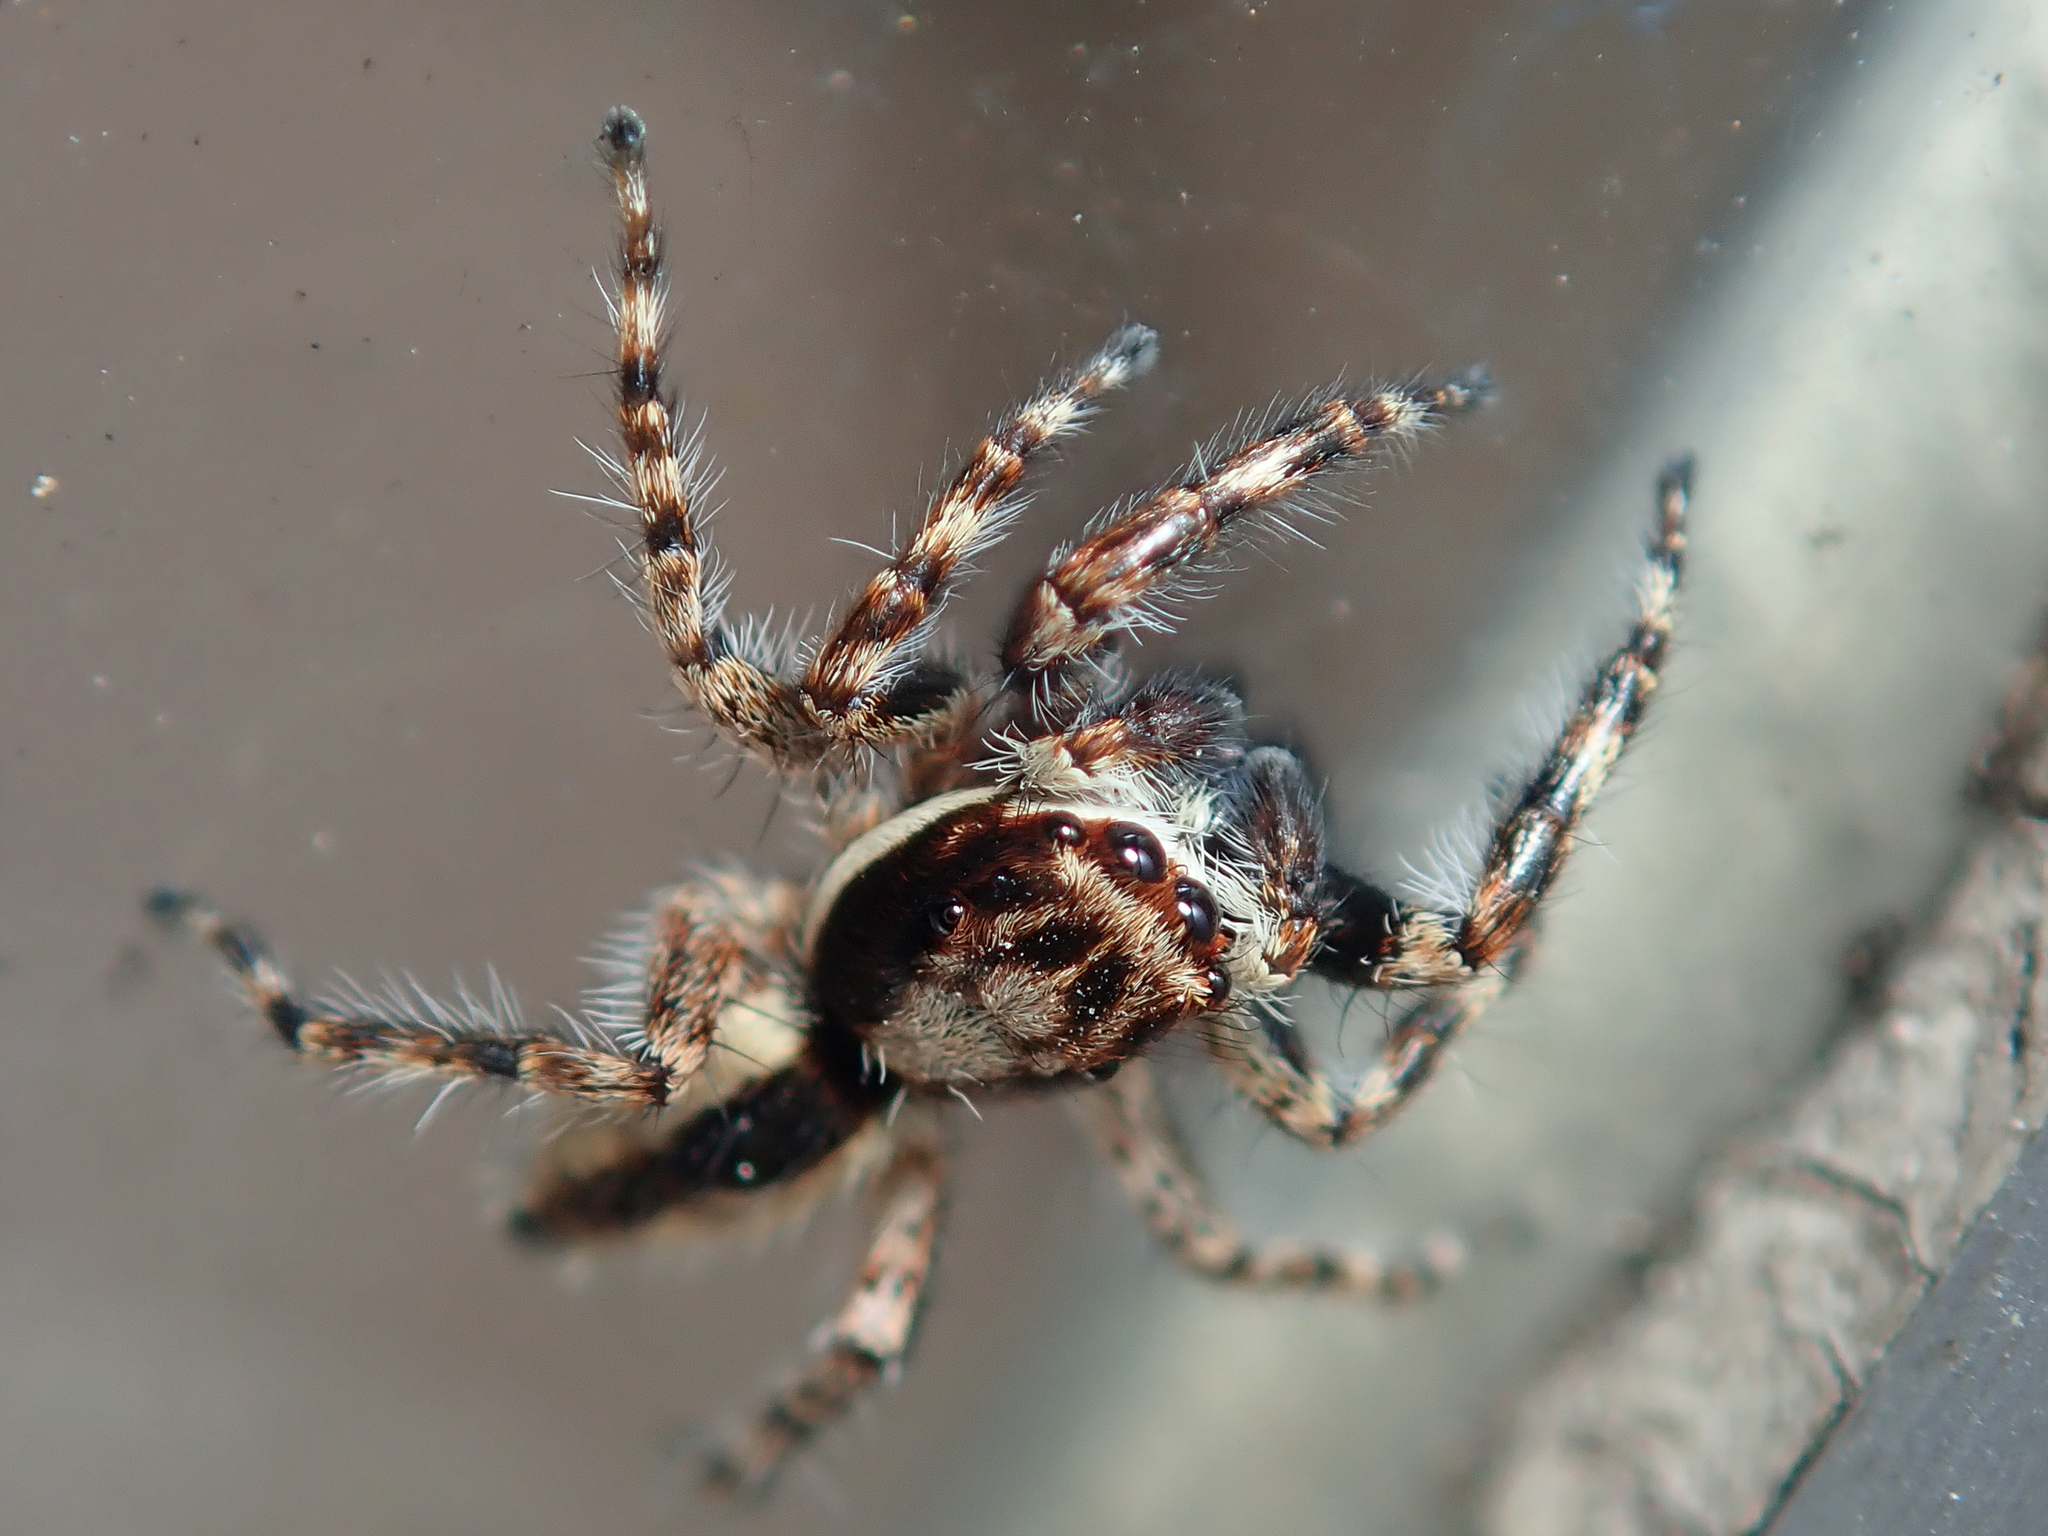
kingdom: Animalia
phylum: Arthropoda
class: Arachnida
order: Araneae
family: Salticidae
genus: Menemerus
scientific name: Menemerus bivittatus
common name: Gray wall jumper
